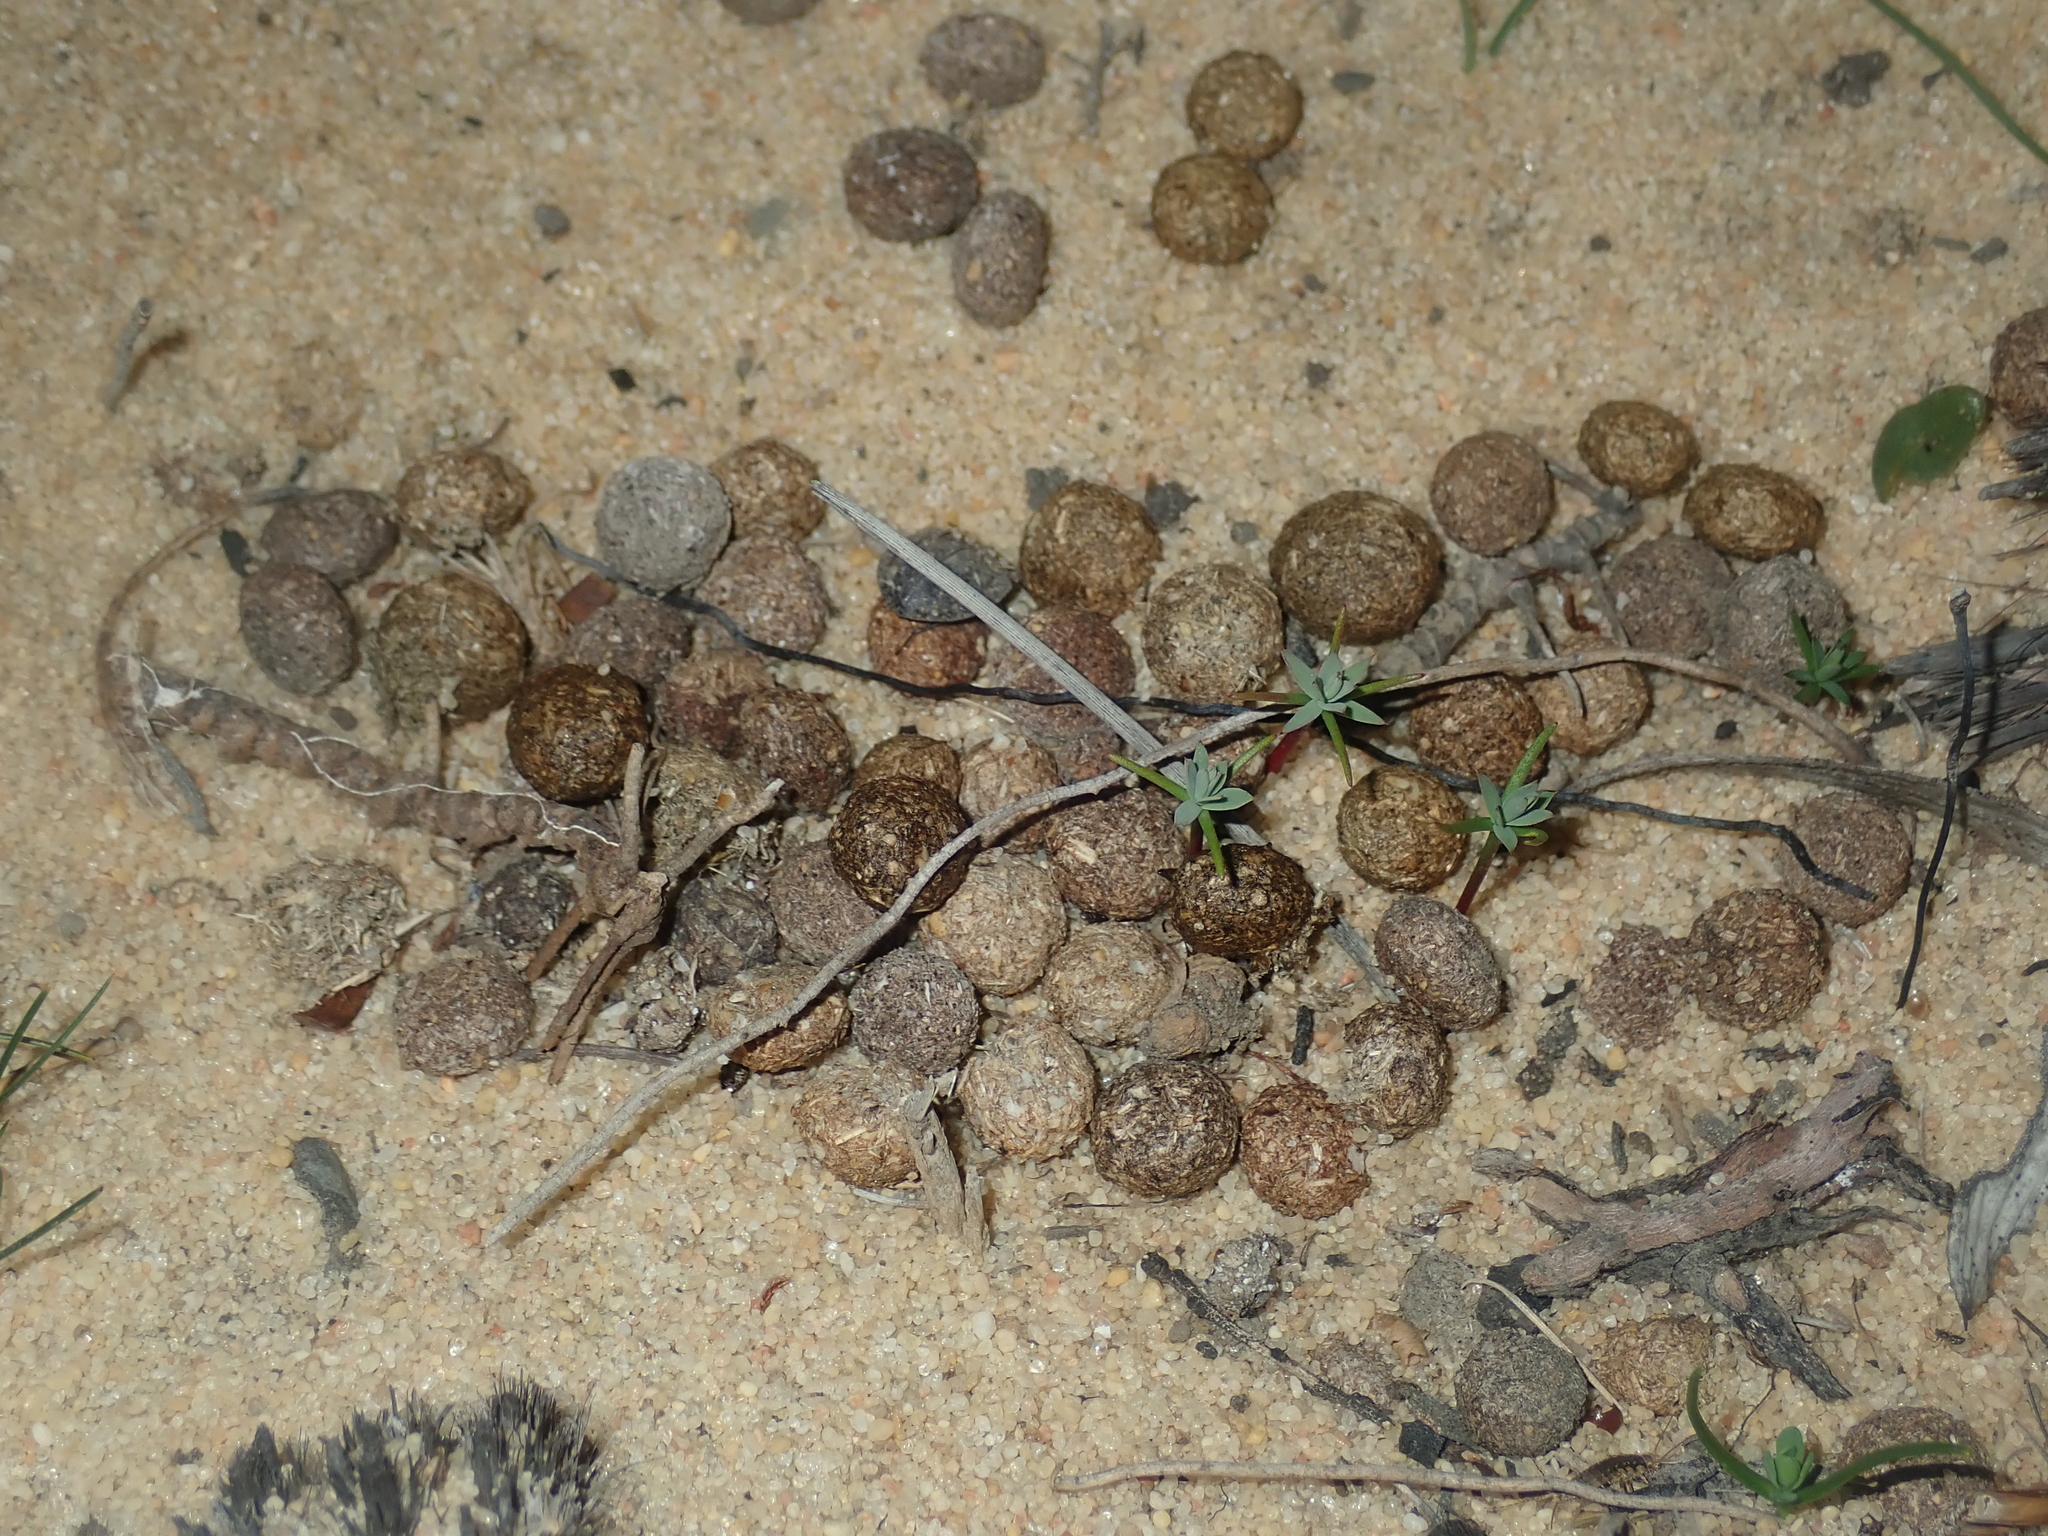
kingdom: Animalia
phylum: Chordata
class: Mammalia
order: Lagomorpha
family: Leporidae
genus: Oryctolagus
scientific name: Oryctolagus cuniculus
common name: European rabbit
